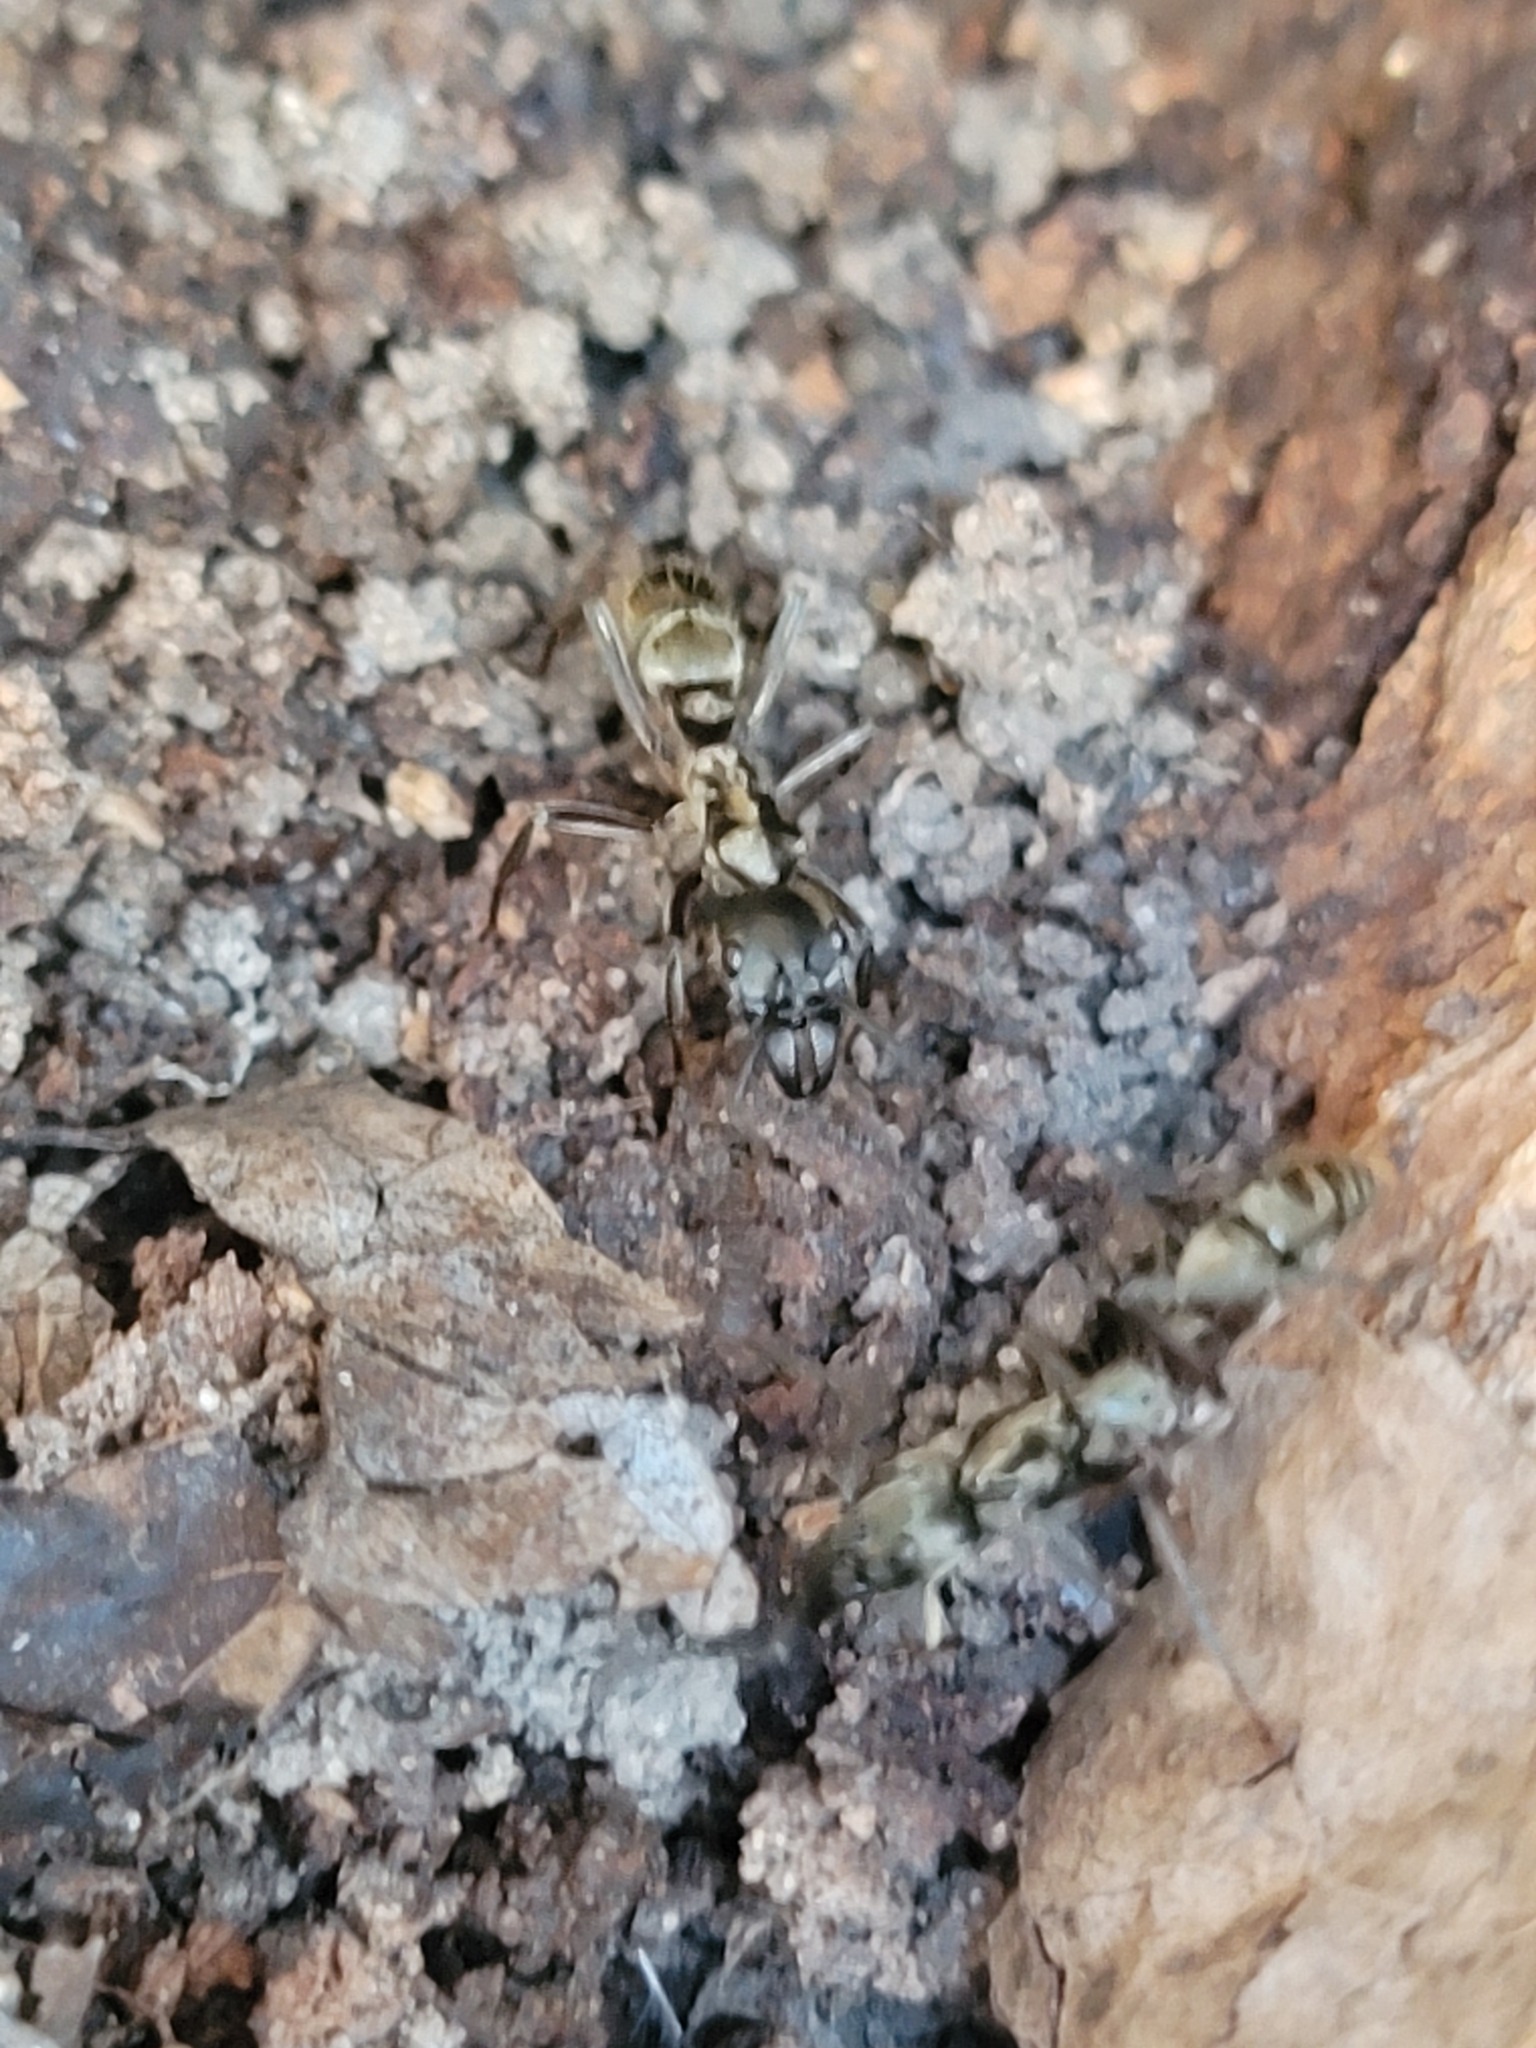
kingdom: Animalia
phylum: Arthropoda
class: Insecta
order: Hymenoptera
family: Formicidae
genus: Pachycondyla
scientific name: Pachycondyla villosa
